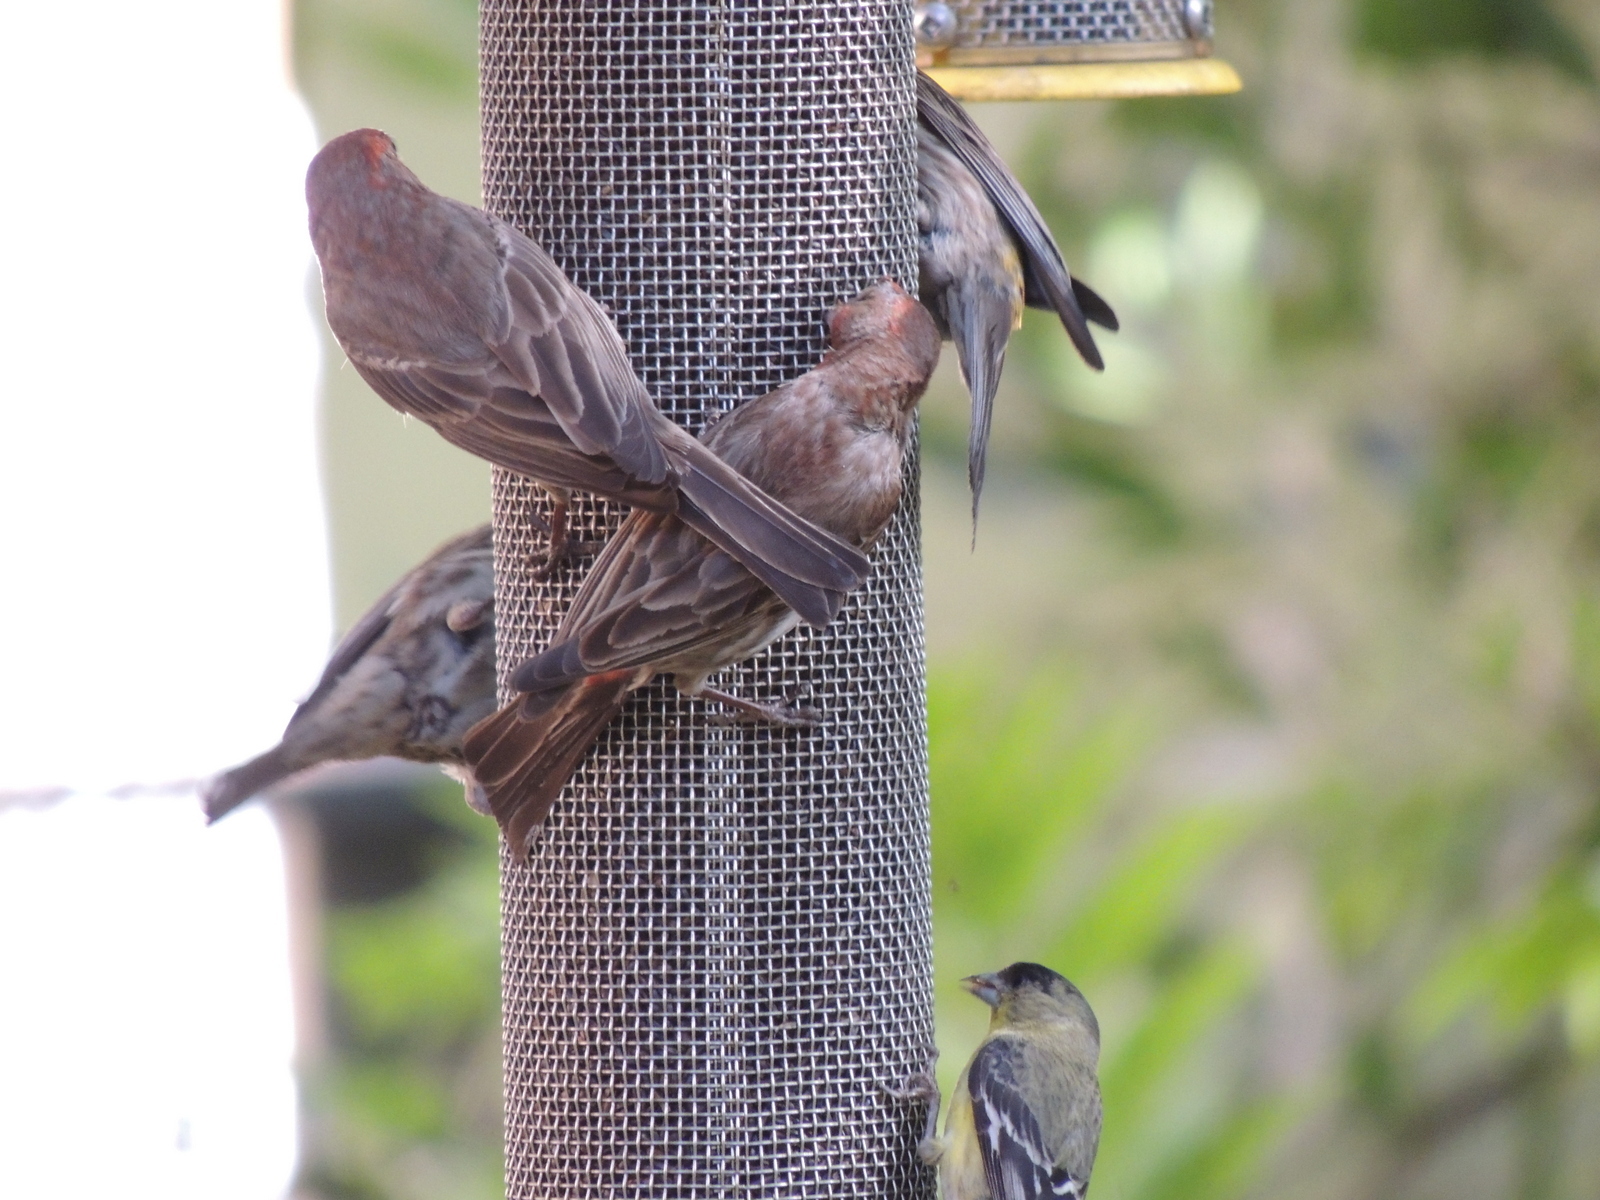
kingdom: Animalia
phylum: Chordata
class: Aves
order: Passeriformes
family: Fringillidae
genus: Spinus
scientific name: Spinus psaltria
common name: Lesser goldfinch
